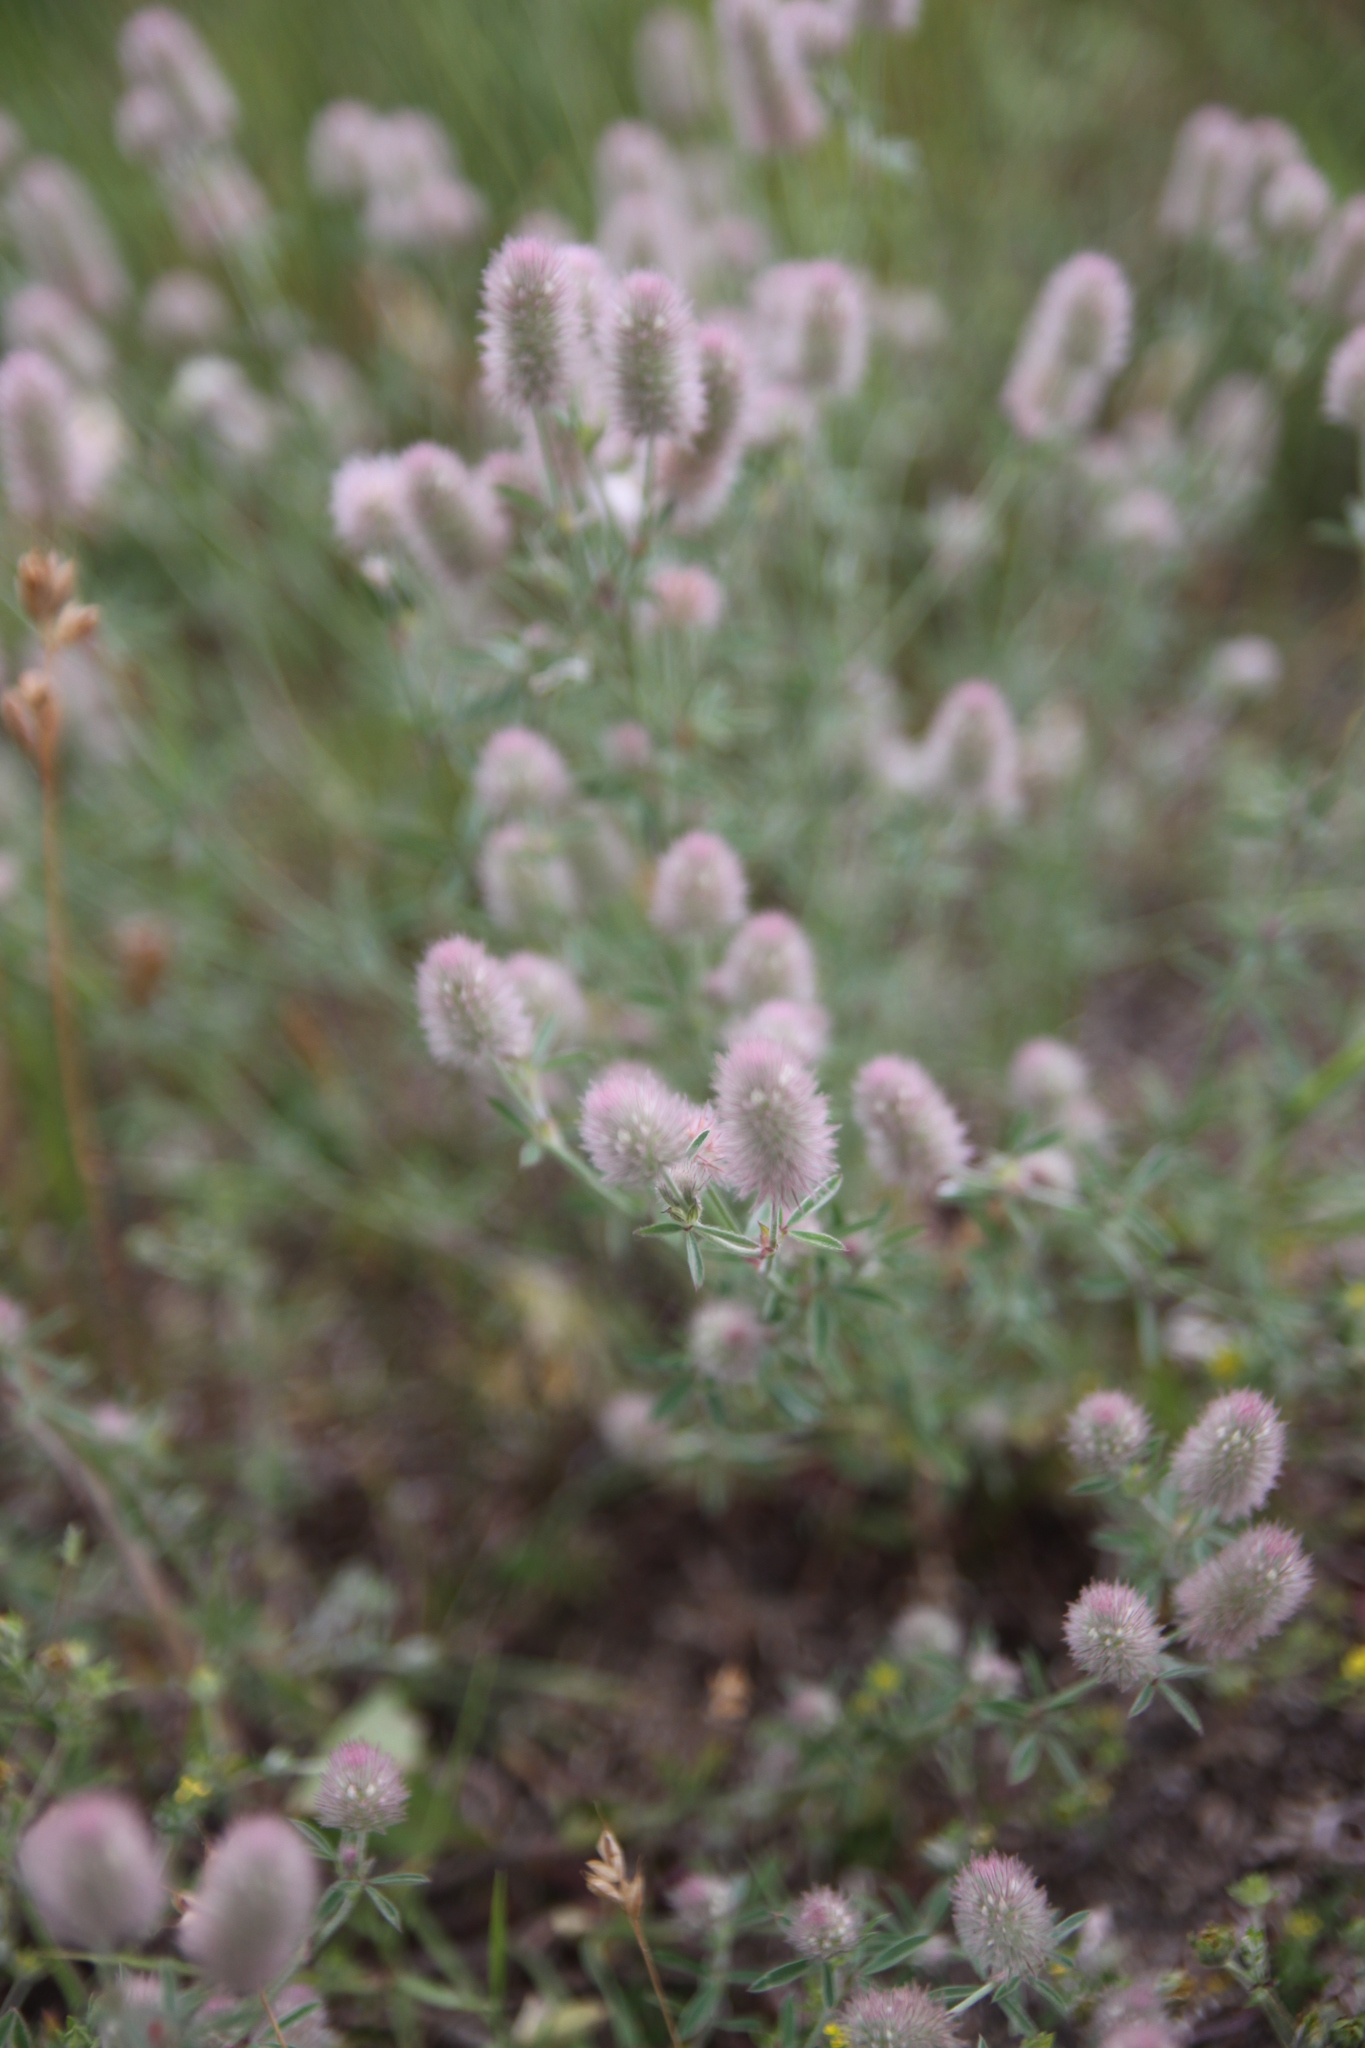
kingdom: Plantae
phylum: Tracheophyta
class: Magnoliopsida
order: Fabales
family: Fabaceae
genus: Trifolium
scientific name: Trifolium arvense
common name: Hare's-foot clover
